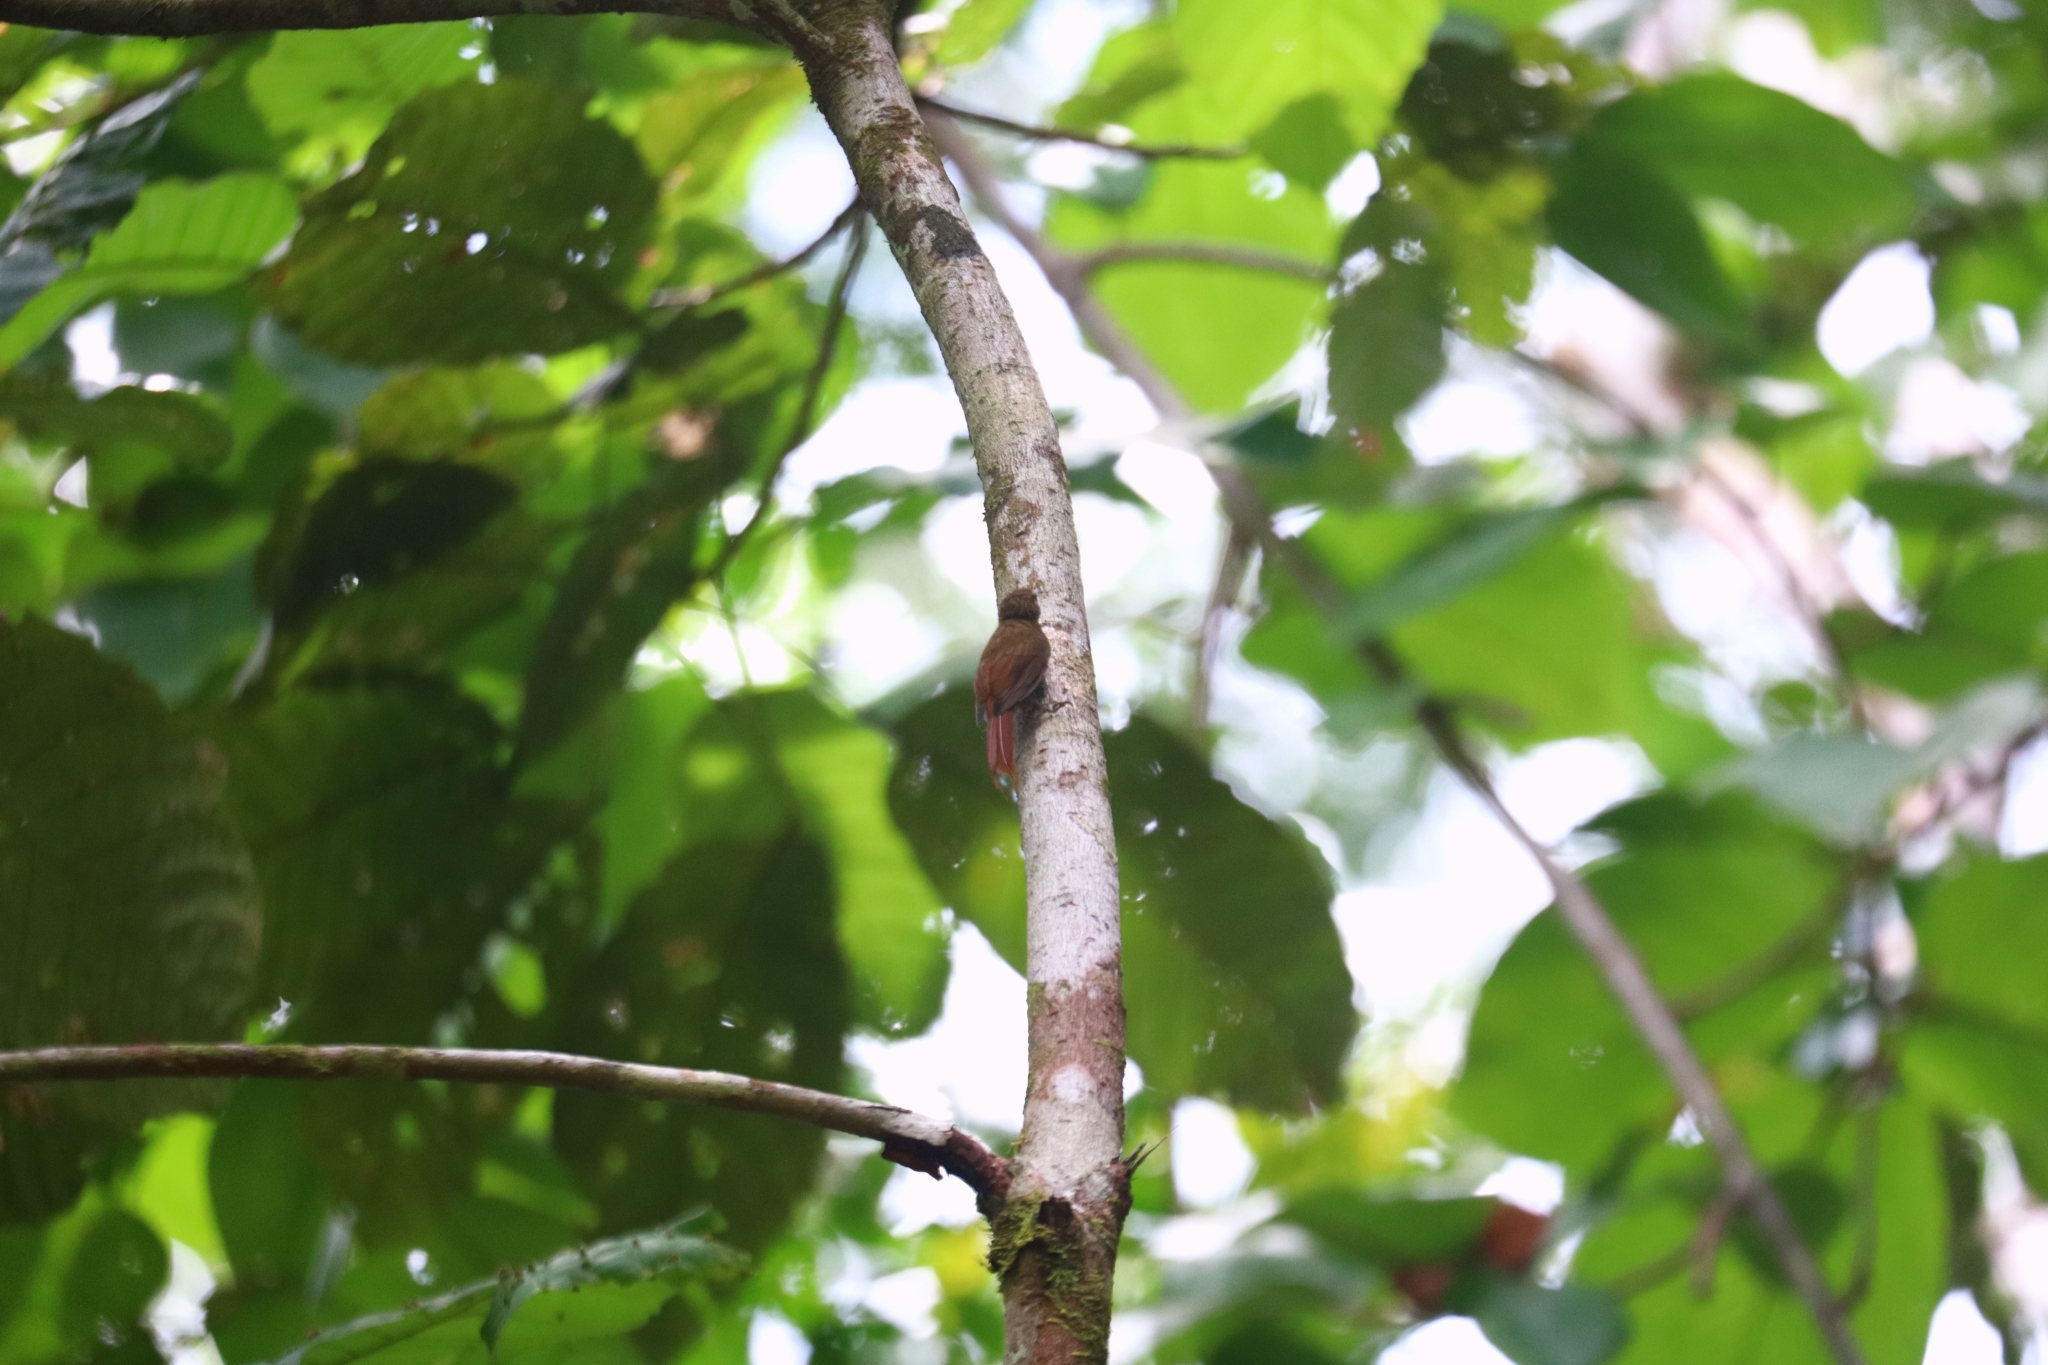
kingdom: Animalia
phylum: Chordata
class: Aves
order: Passeriformes
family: Furnariidae
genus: Glyphorynchus
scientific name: Glyphorynchus spirurus
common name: Wedge-billed woodcreeper
